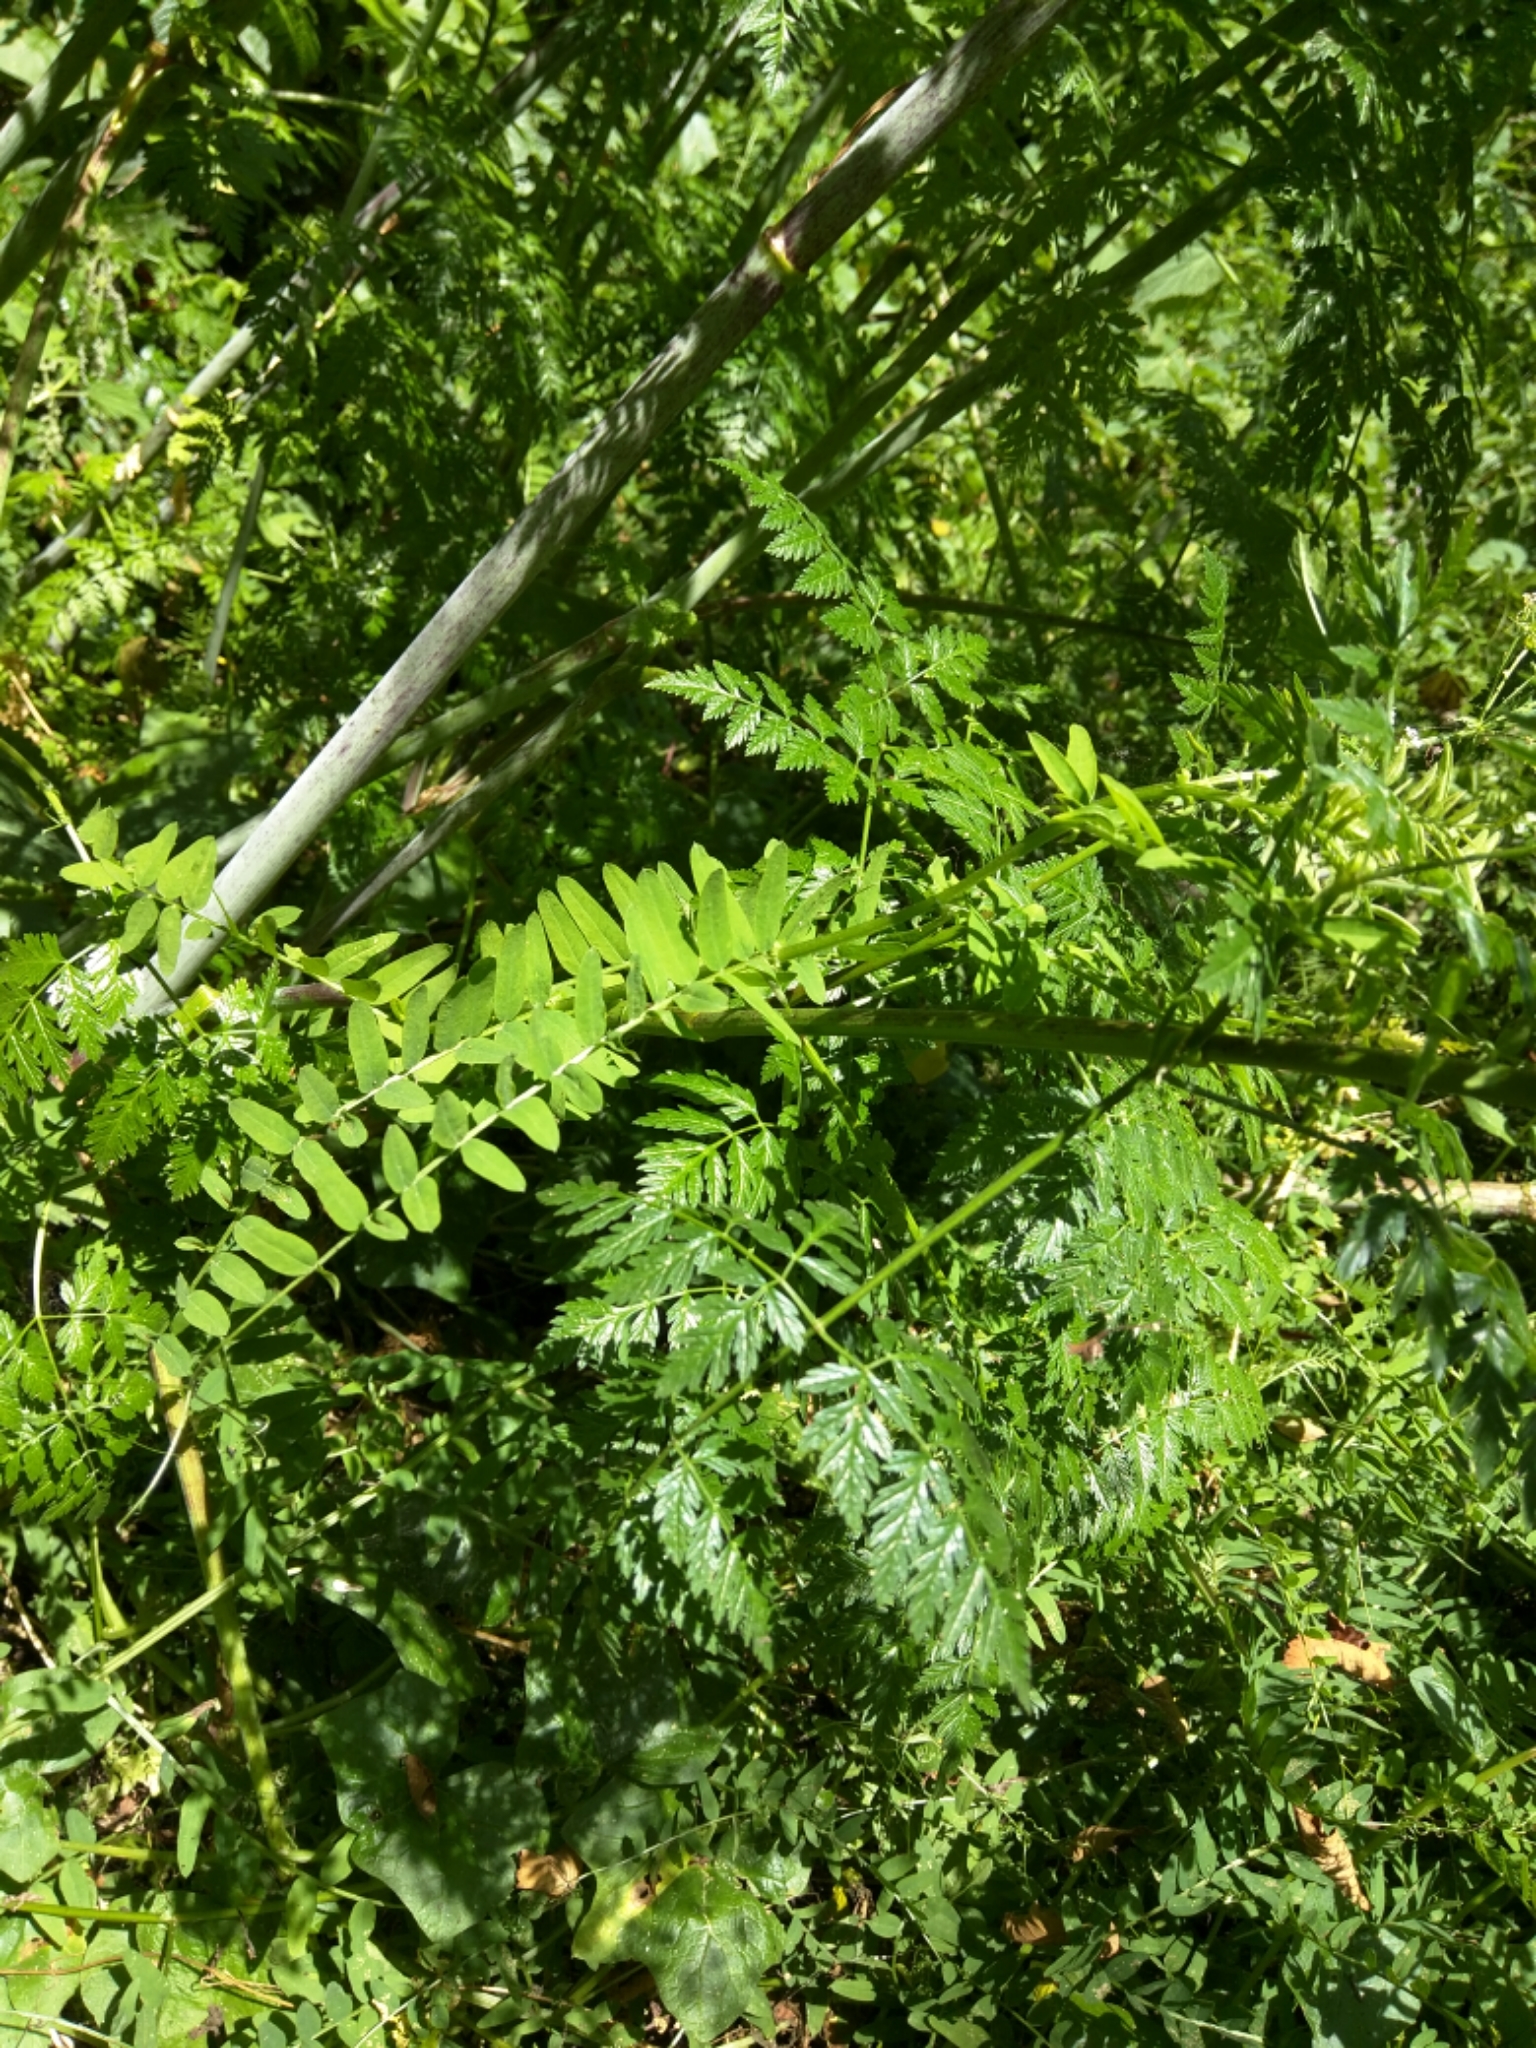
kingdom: Plantae
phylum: Tracheophyta
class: Magnoliopsida
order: Apiales
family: Apiaceae
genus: Conium
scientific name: Conium maculatum
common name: Hemlock
